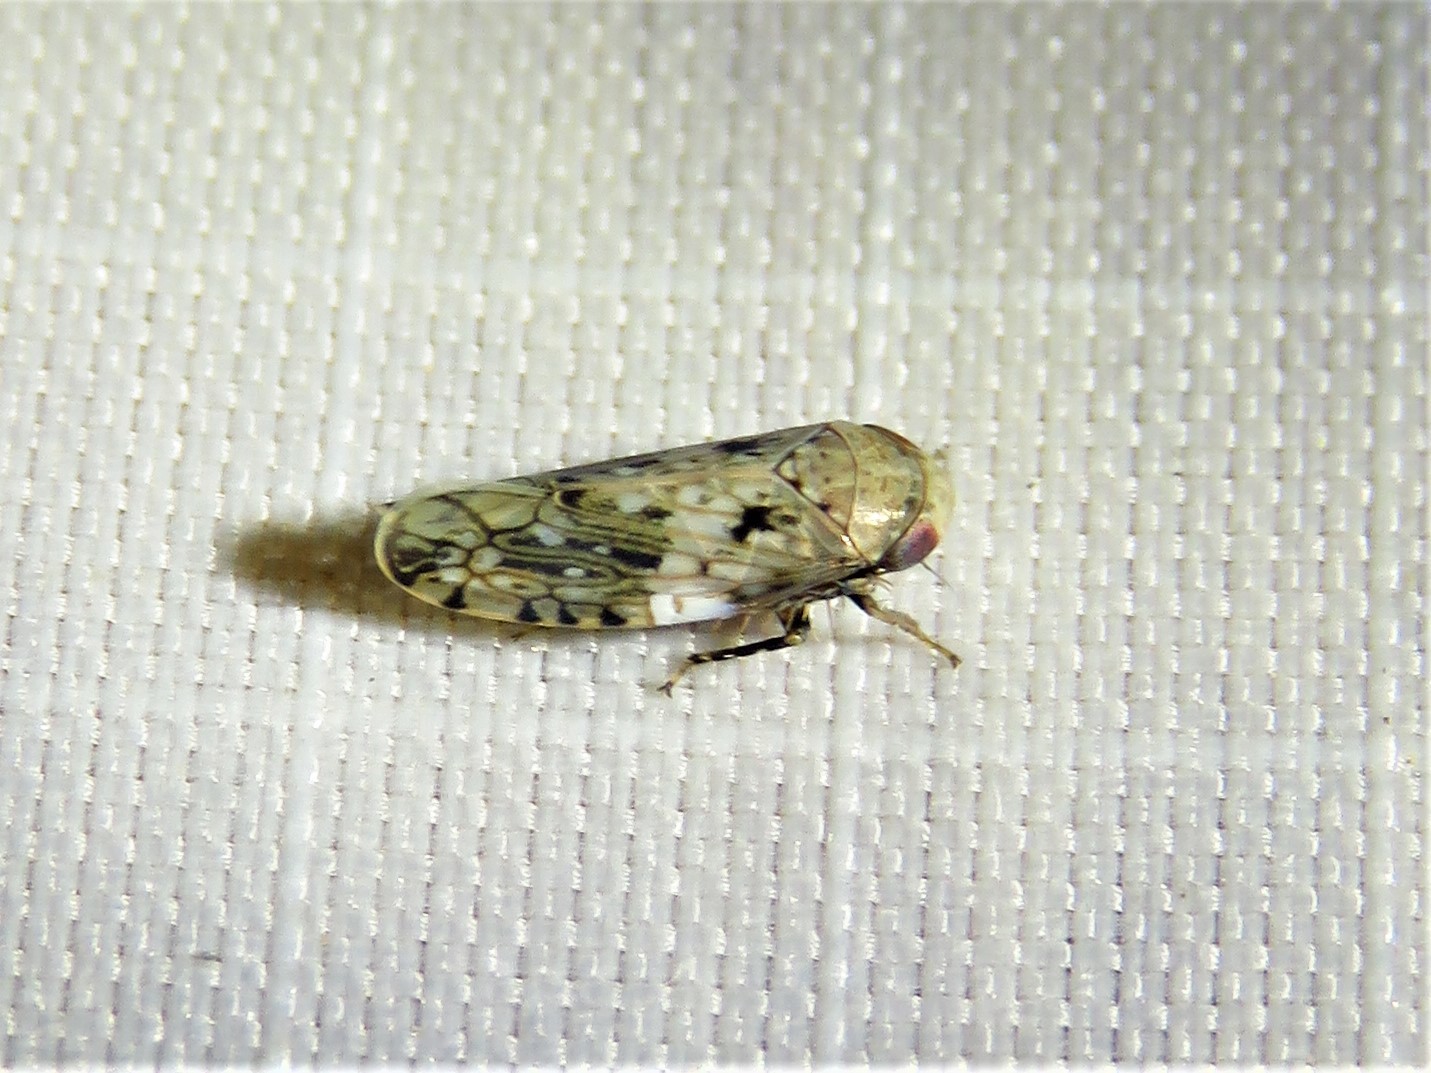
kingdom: Animalia
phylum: Arthropoda
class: Insecta
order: Hemiptera
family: Cicadellidae
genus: Menosoma
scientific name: Menosoma cinctum
